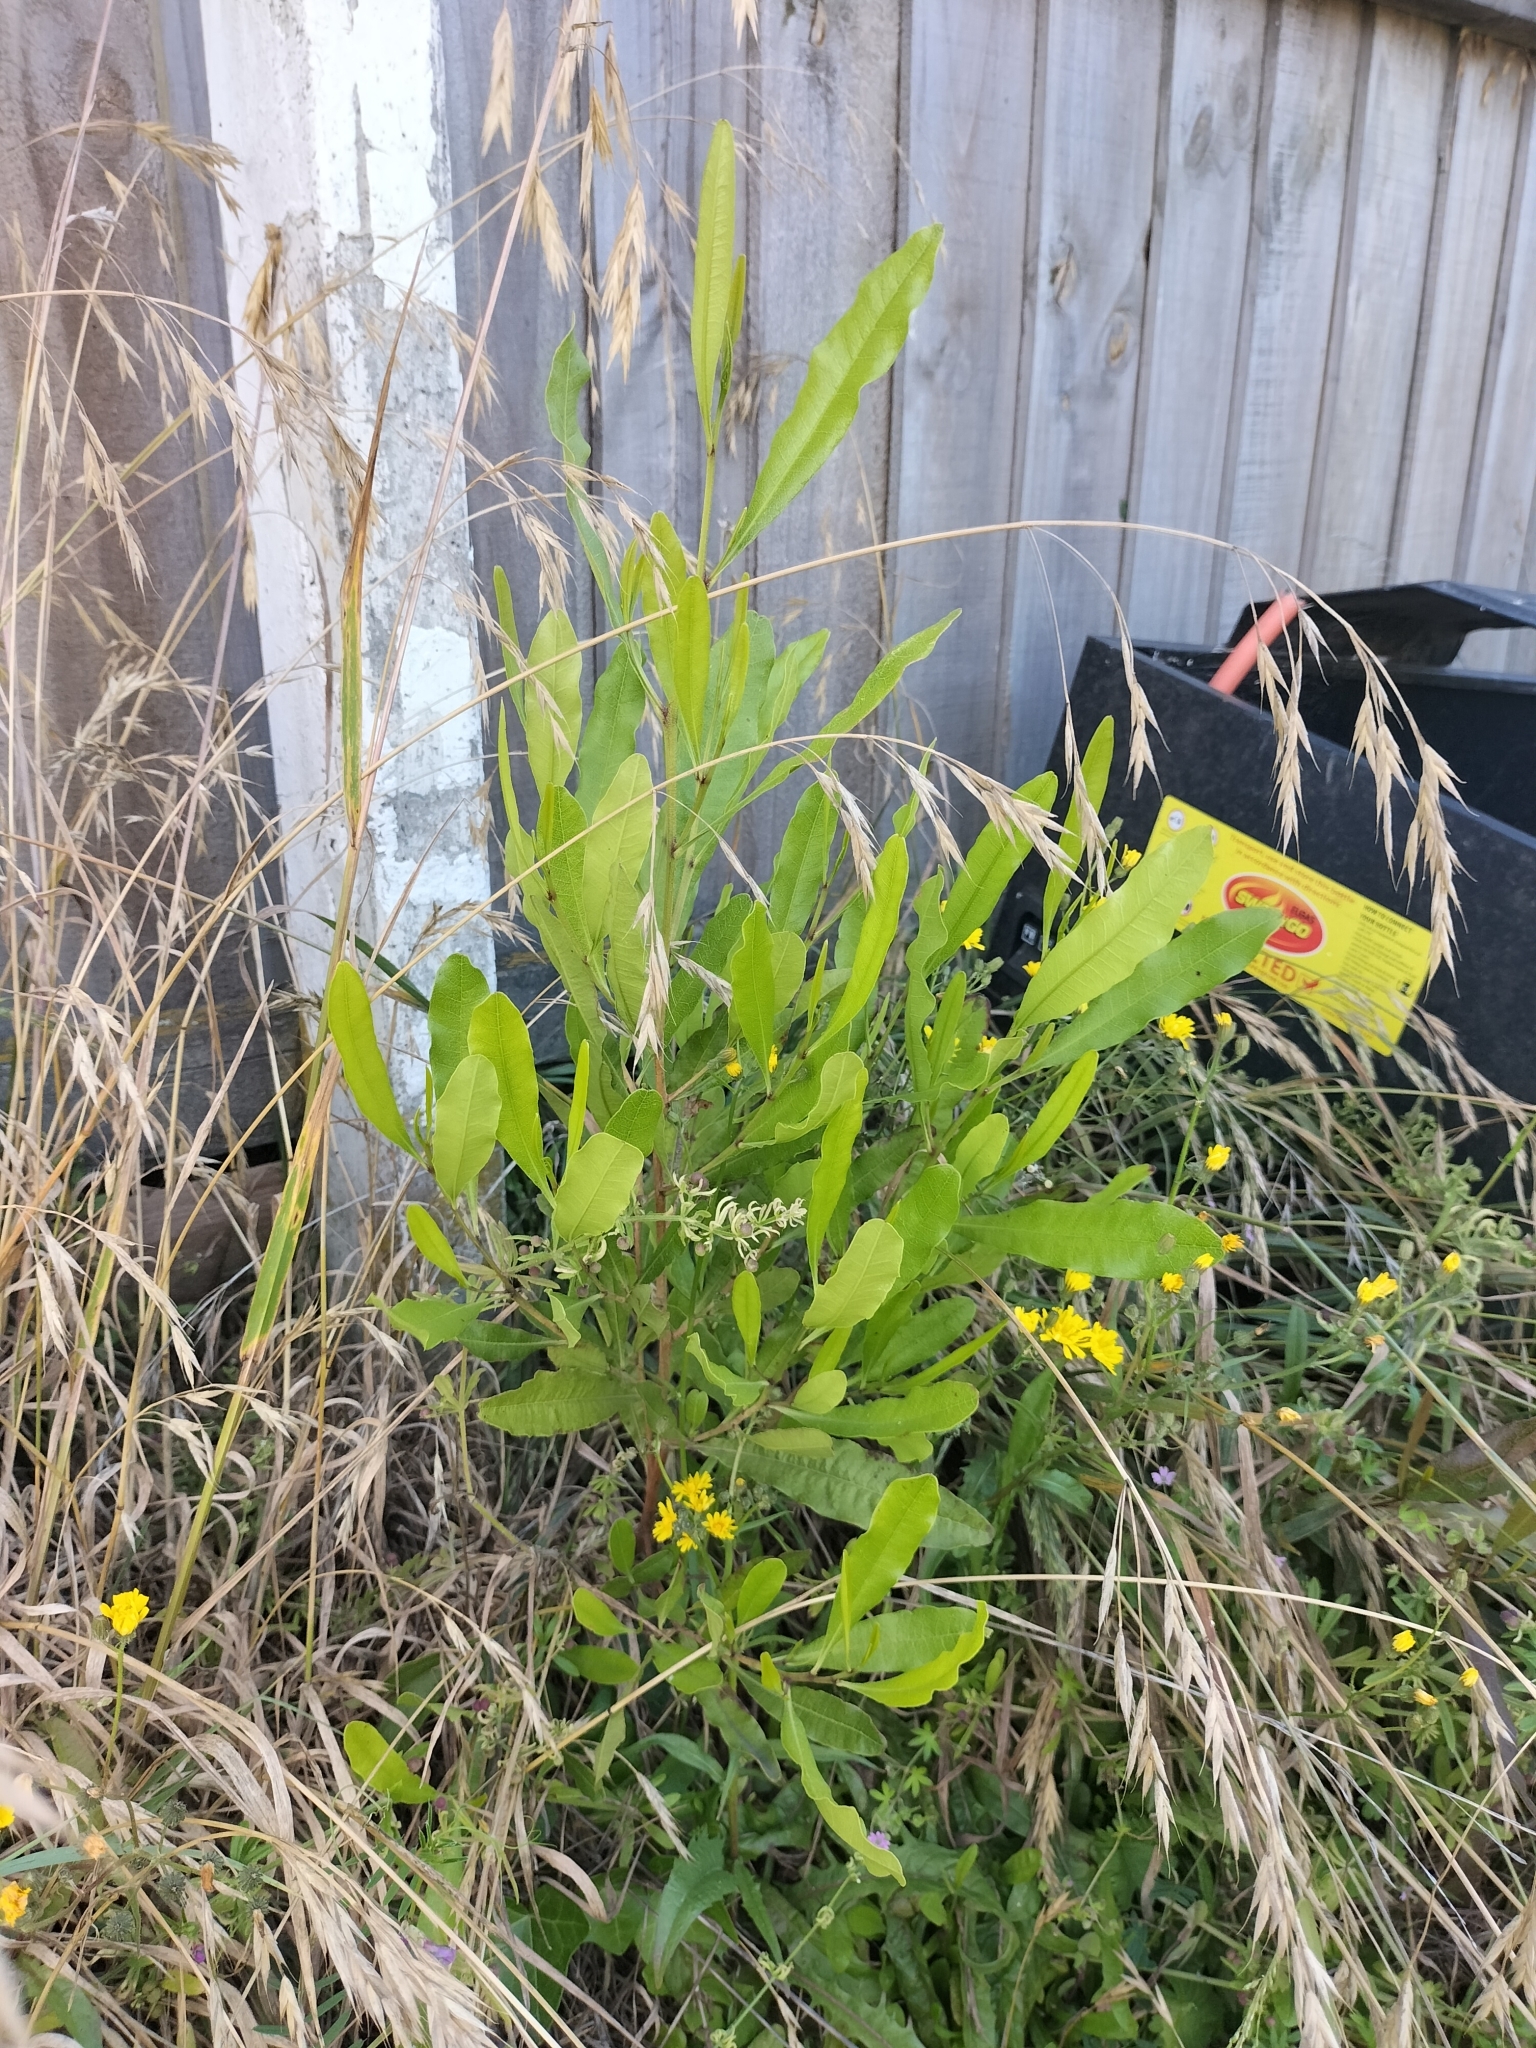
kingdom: Plantae
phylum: Tracheophyta
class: Magnoliopsida
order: Sapindales
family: Sapindaceae
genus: Dodonaea
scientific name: Dodonaea viscosa
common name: Hopbush
